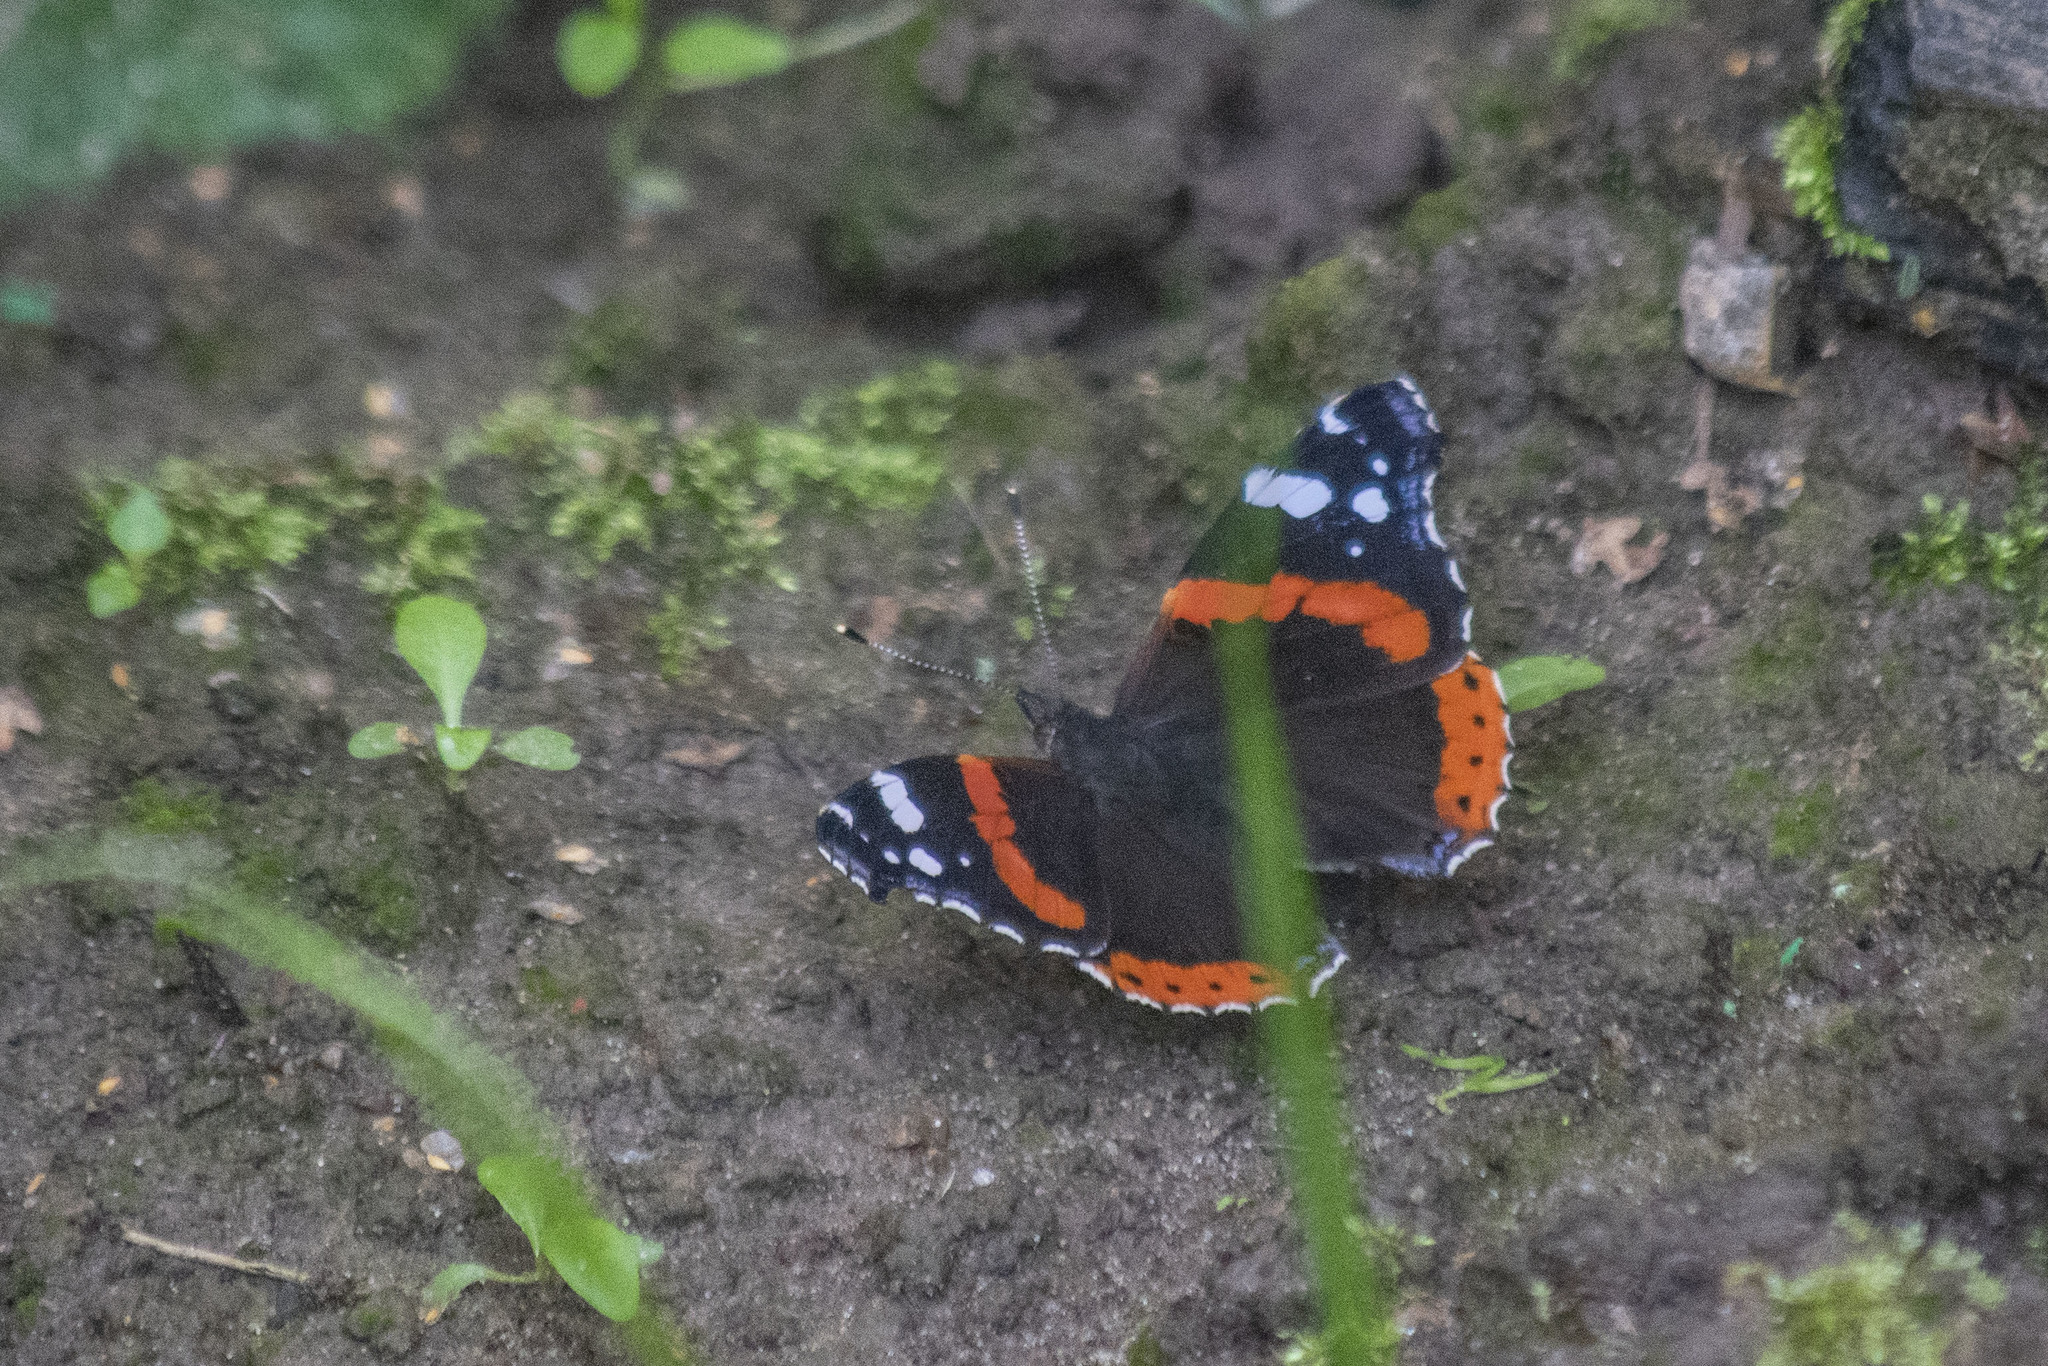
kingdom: Animalia
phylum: Arthropoda
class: Insecta
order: Lepidoptera
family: Nymphalidae
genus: Vanessa
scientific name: Vanessa atalanta
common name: Red admiral
